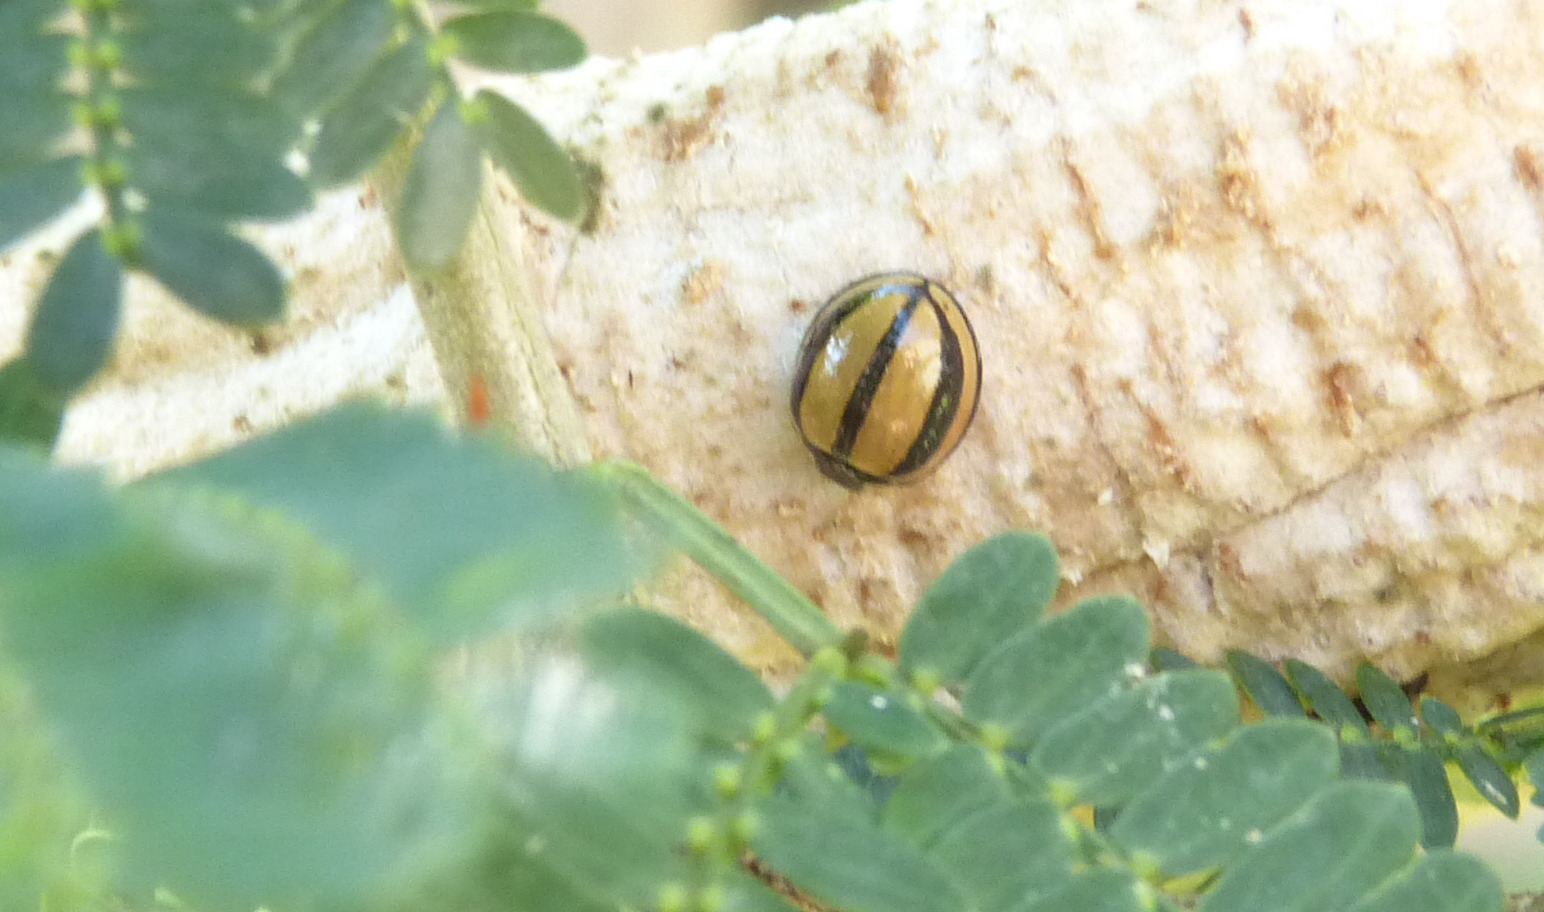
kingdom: Animalia
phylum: Arthropoda
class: Insecta
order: Coleoptera
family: Coccinellidae
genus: Cheilomenes
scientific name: Cheilomenes propinqua
